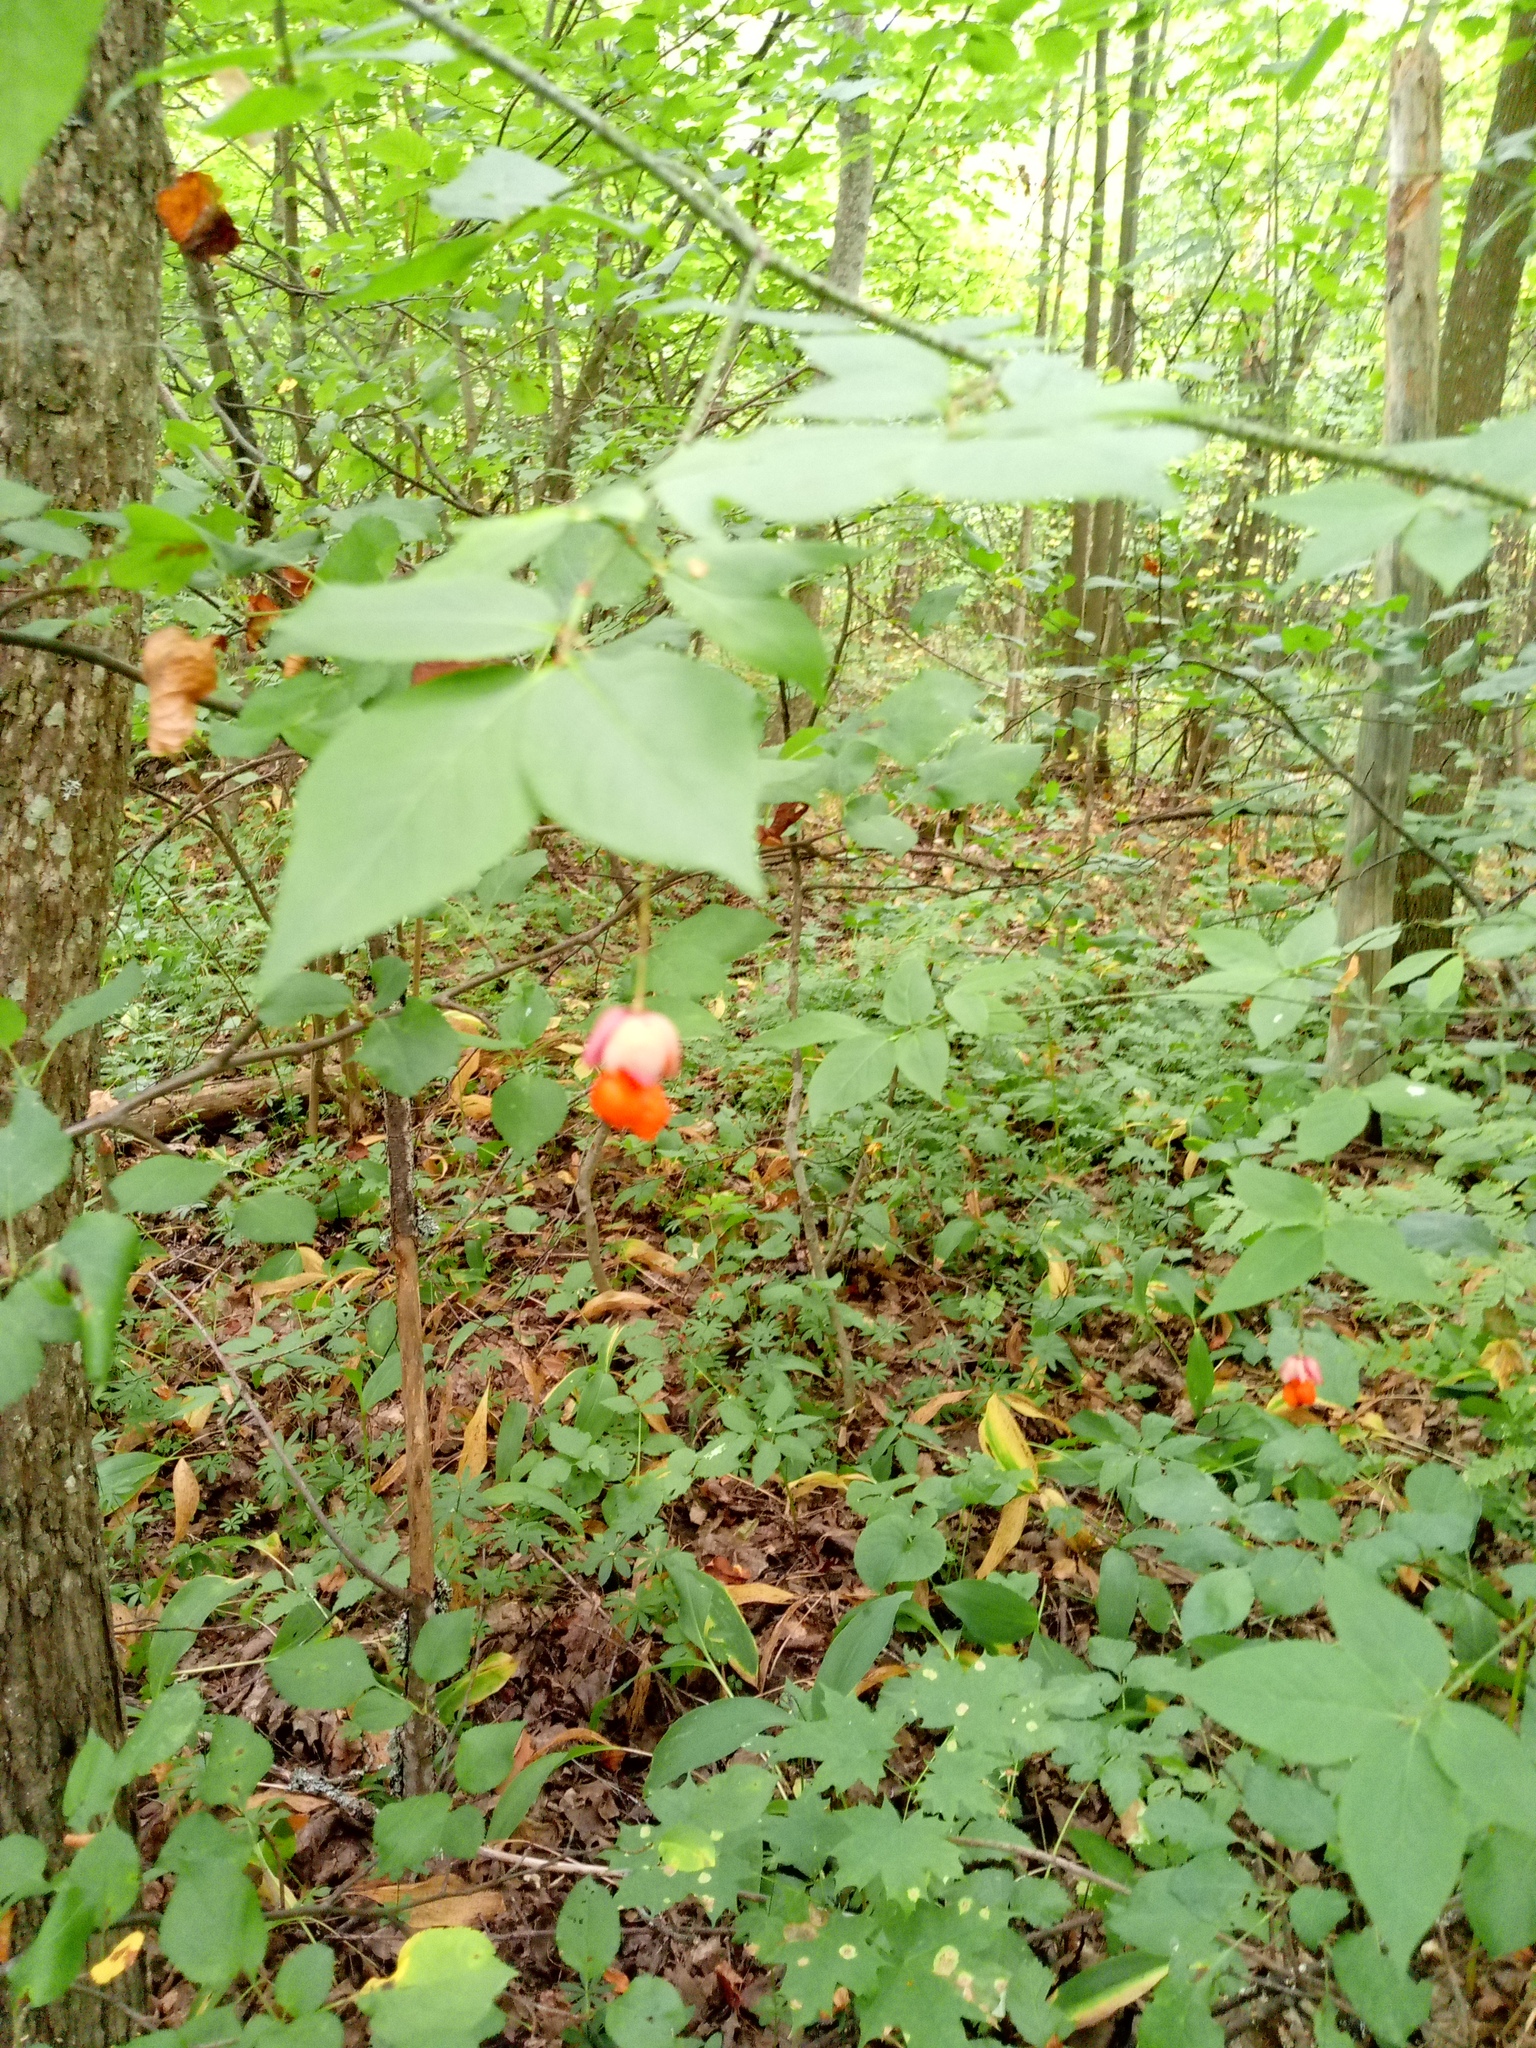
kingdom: Plantae
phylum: Tracheophyta
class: Magnoliopsida
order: Celastrales
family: Celastraceae
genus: Euonymus
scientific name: Euonymus verrucosus
